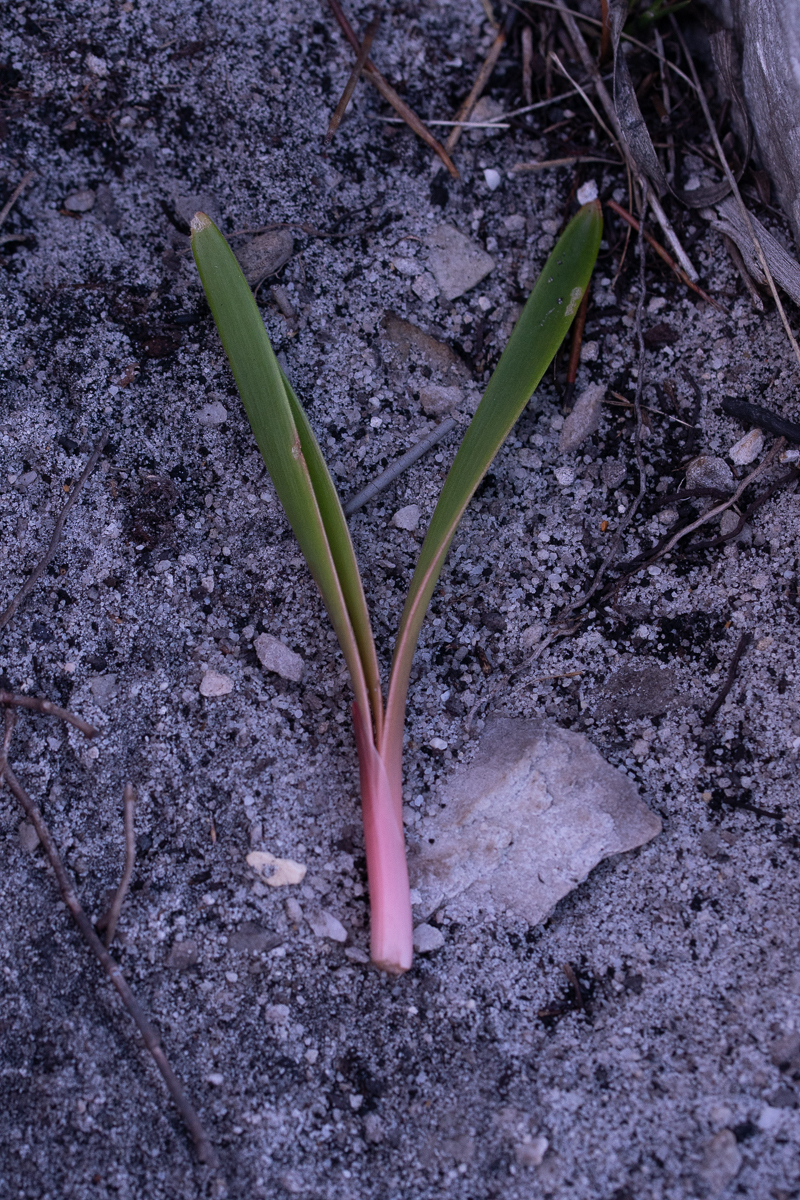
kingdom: Plantae
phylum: Tracheophyta
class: Liliopsida
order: Asparagales
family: Amaryllidaceae
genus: Nerine
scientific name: Nerine sarniensis
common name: Guernsey-lily
